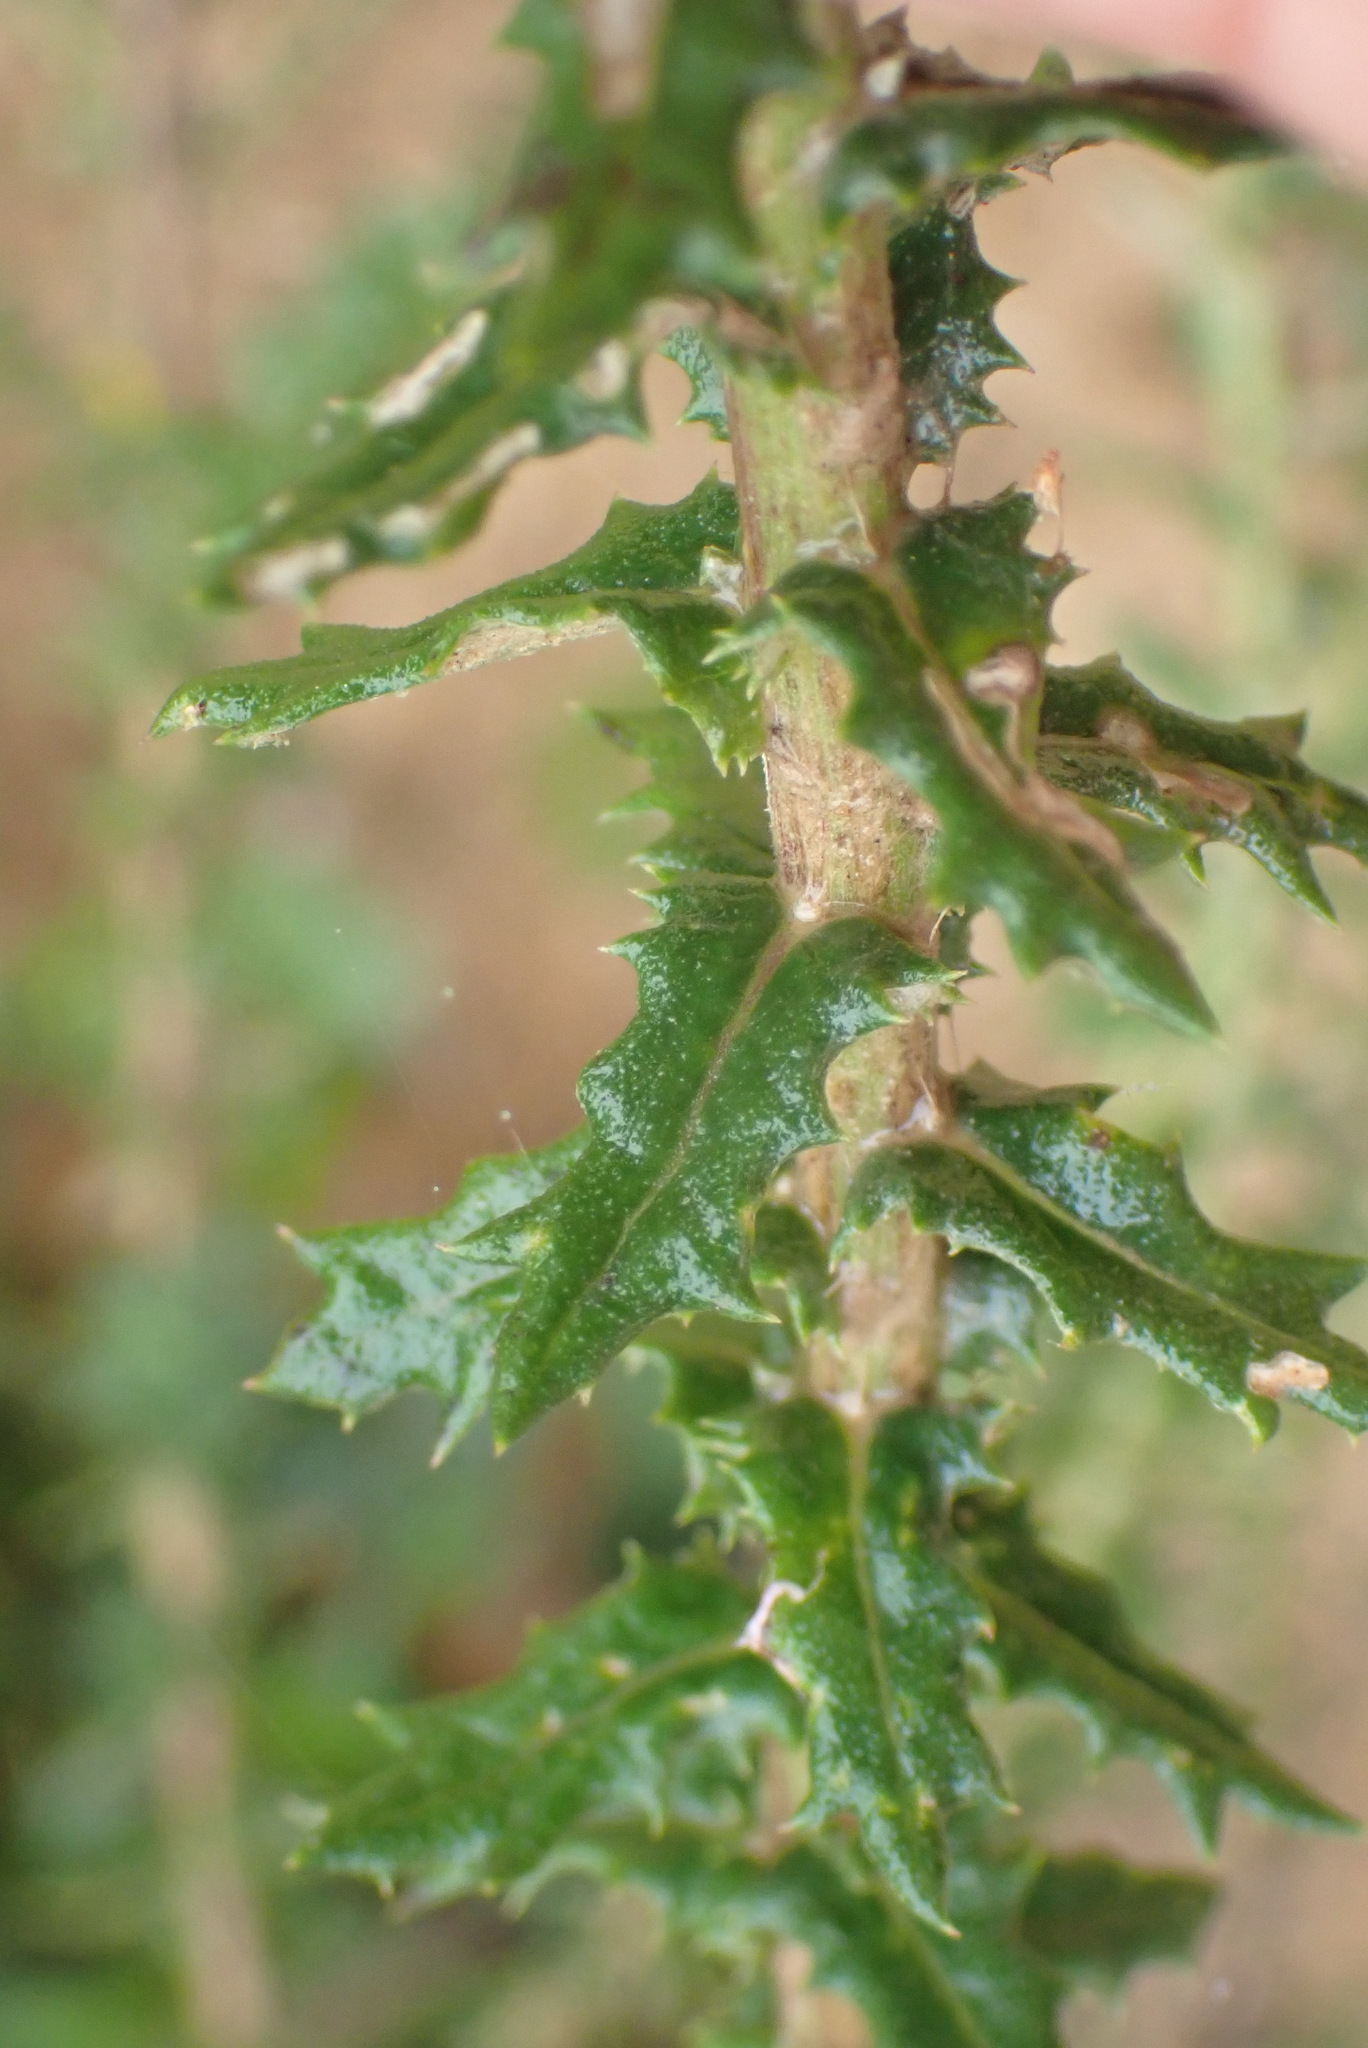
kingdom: Plantae
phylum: Tracheophyta
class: Magnoliopsida
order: Asterales
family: Asteraceae
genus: Senecio
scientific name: Senecio ilicifolius
